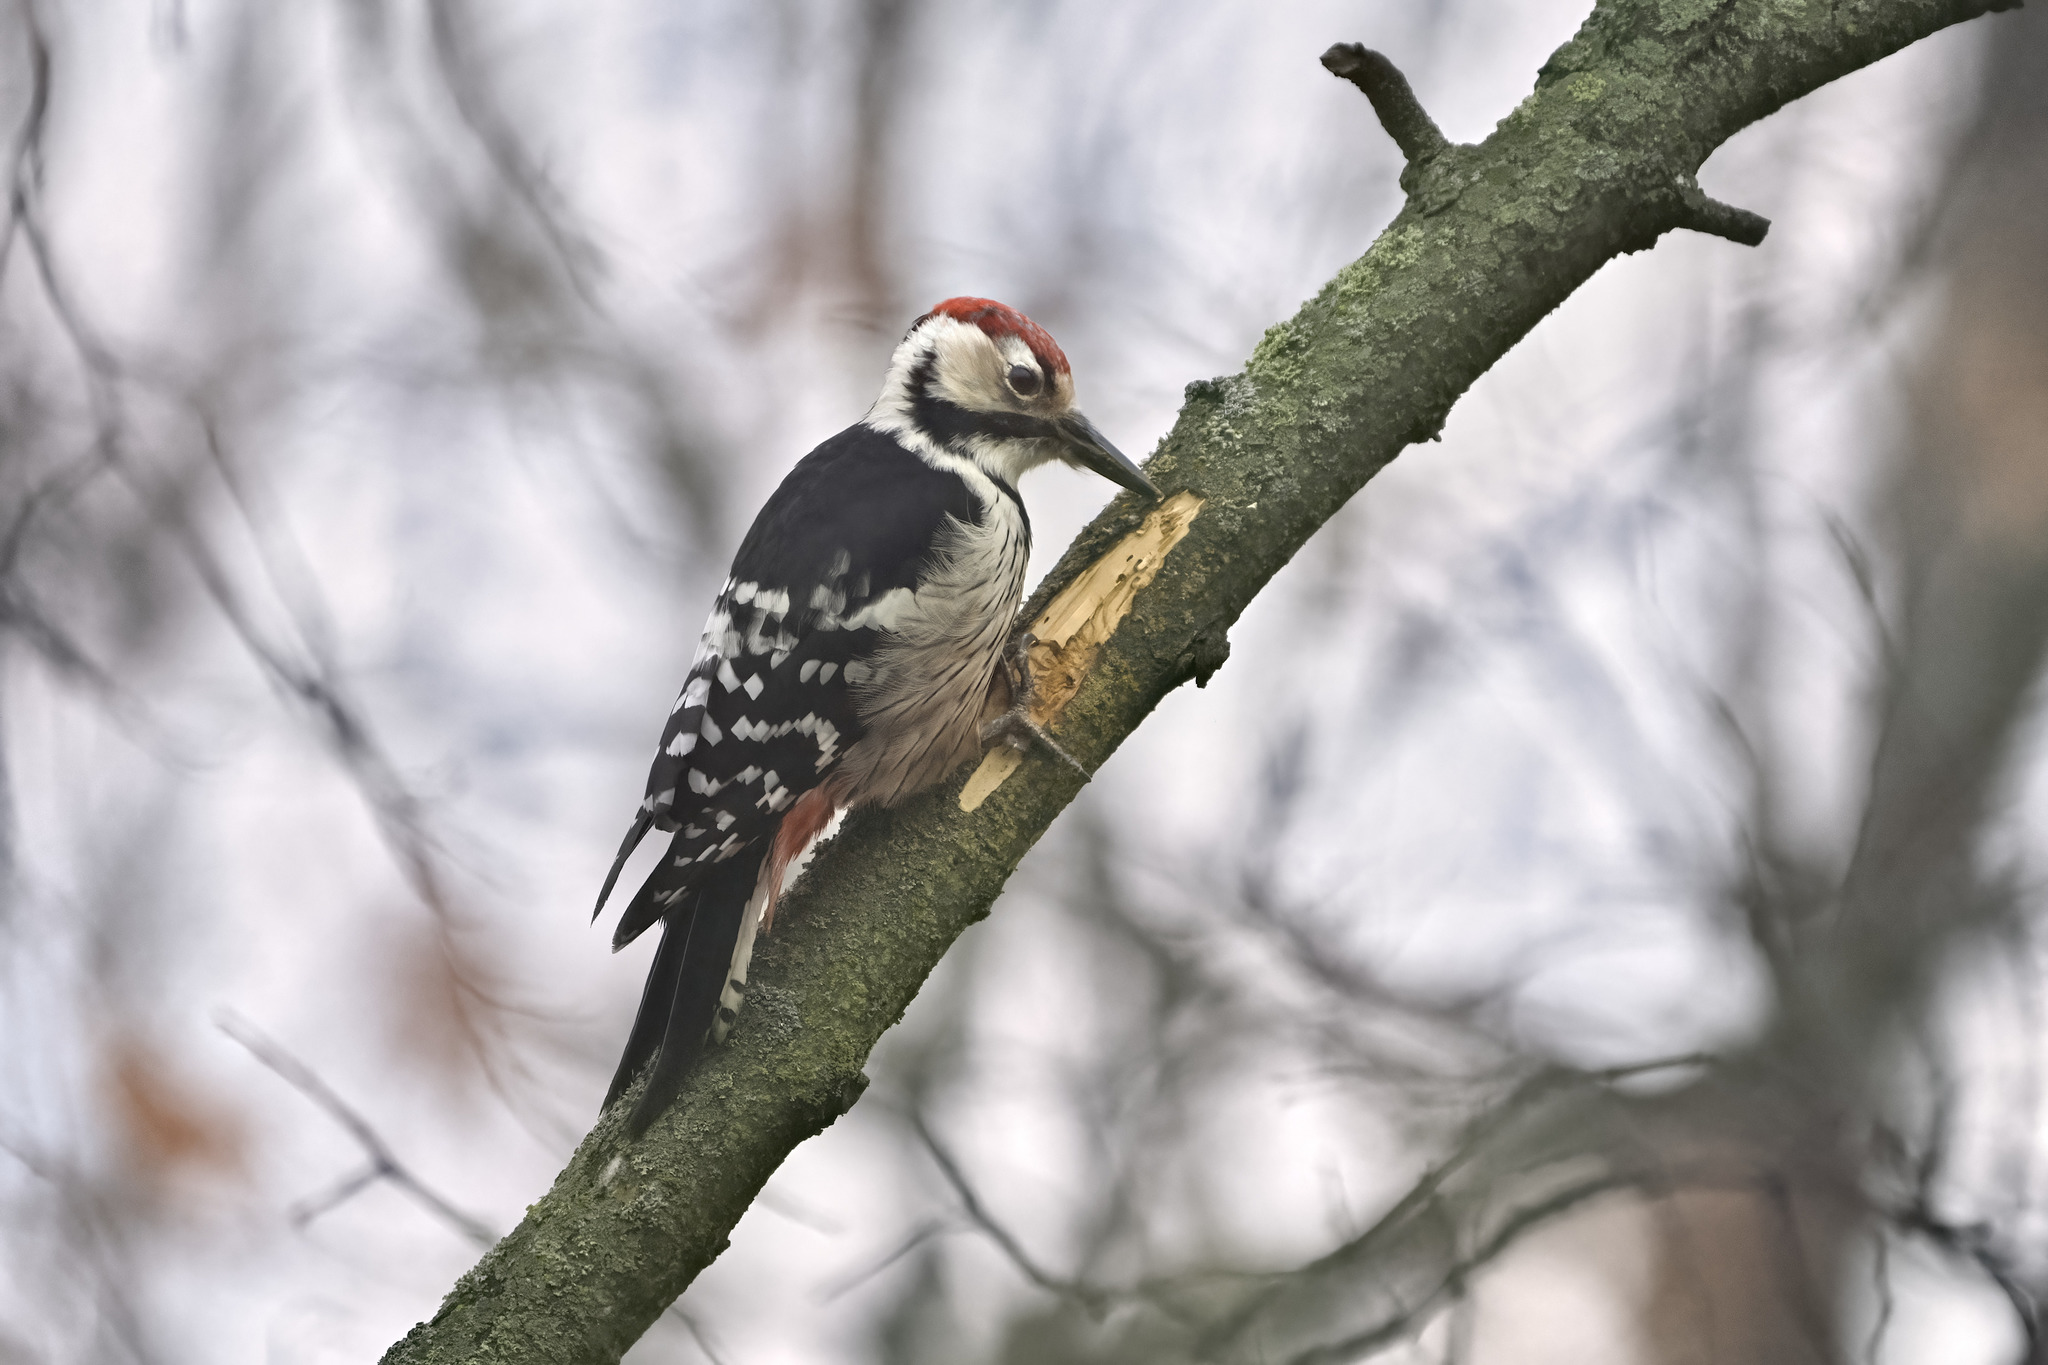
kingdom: Animalia
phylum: Chordata
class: Aves
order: Piciformes
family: Picidae
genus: Dendrocopos
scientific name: Dendrocopos leucotos
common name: White-backed woodpecker
